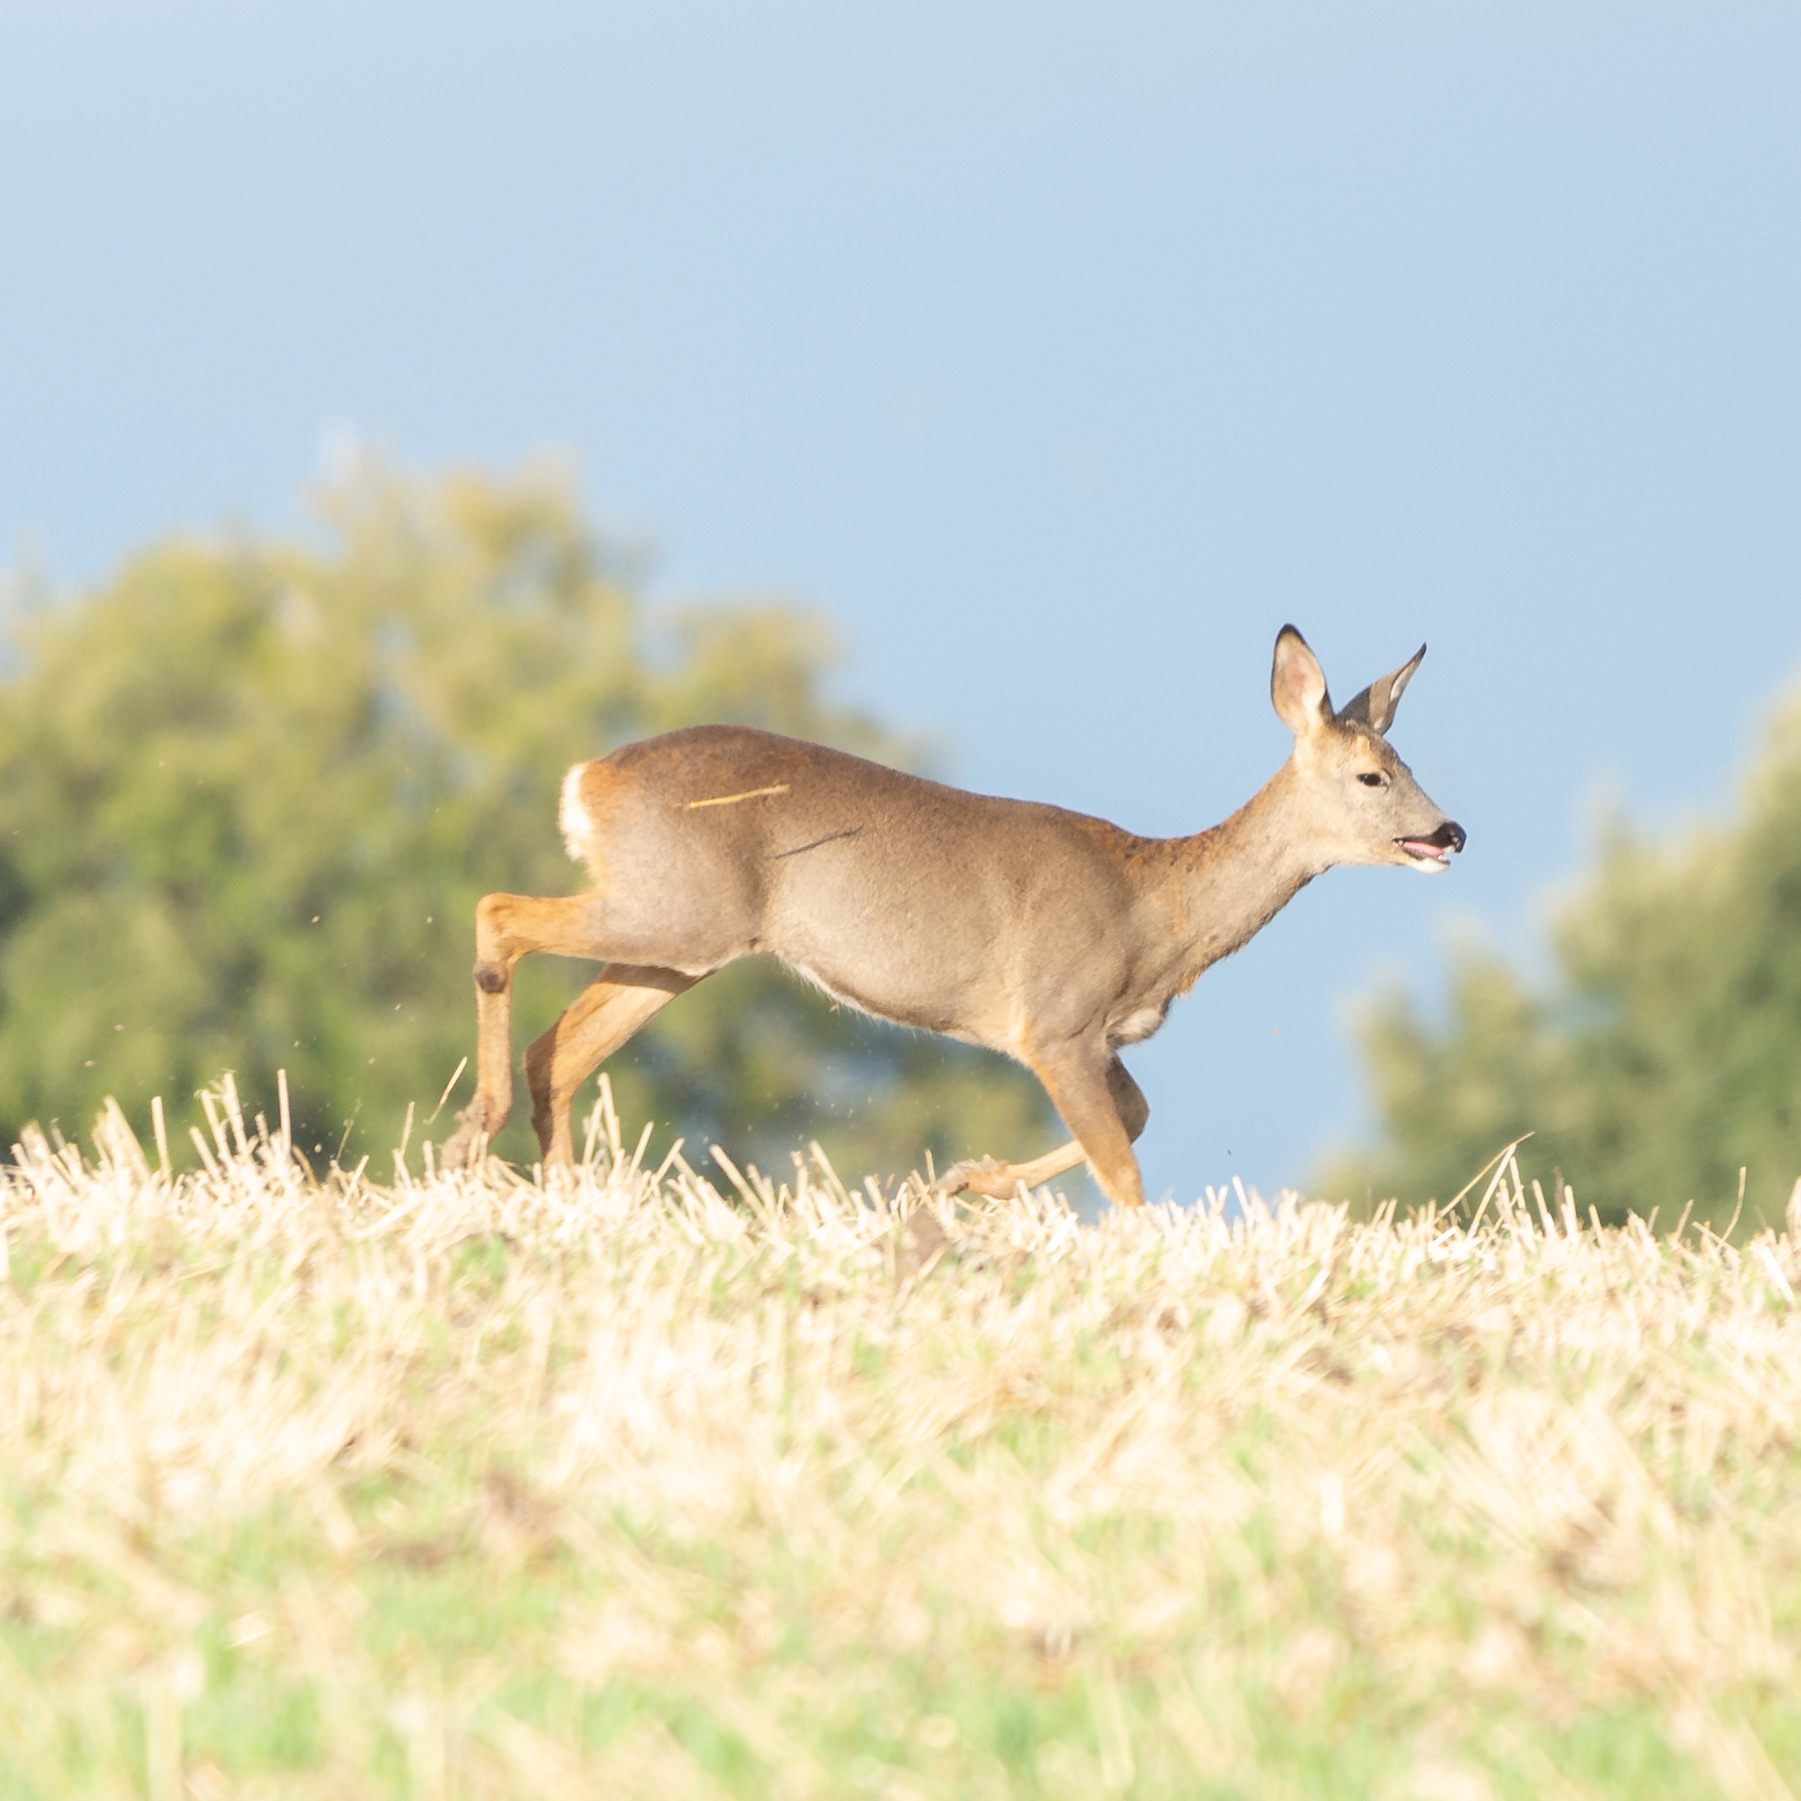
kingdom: Animalia
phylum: Chordata
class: Mammalia
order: Artiodactyla
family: Cervidae
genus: Capreolus
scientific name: Capreolus capreolus
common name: Western roe deer
